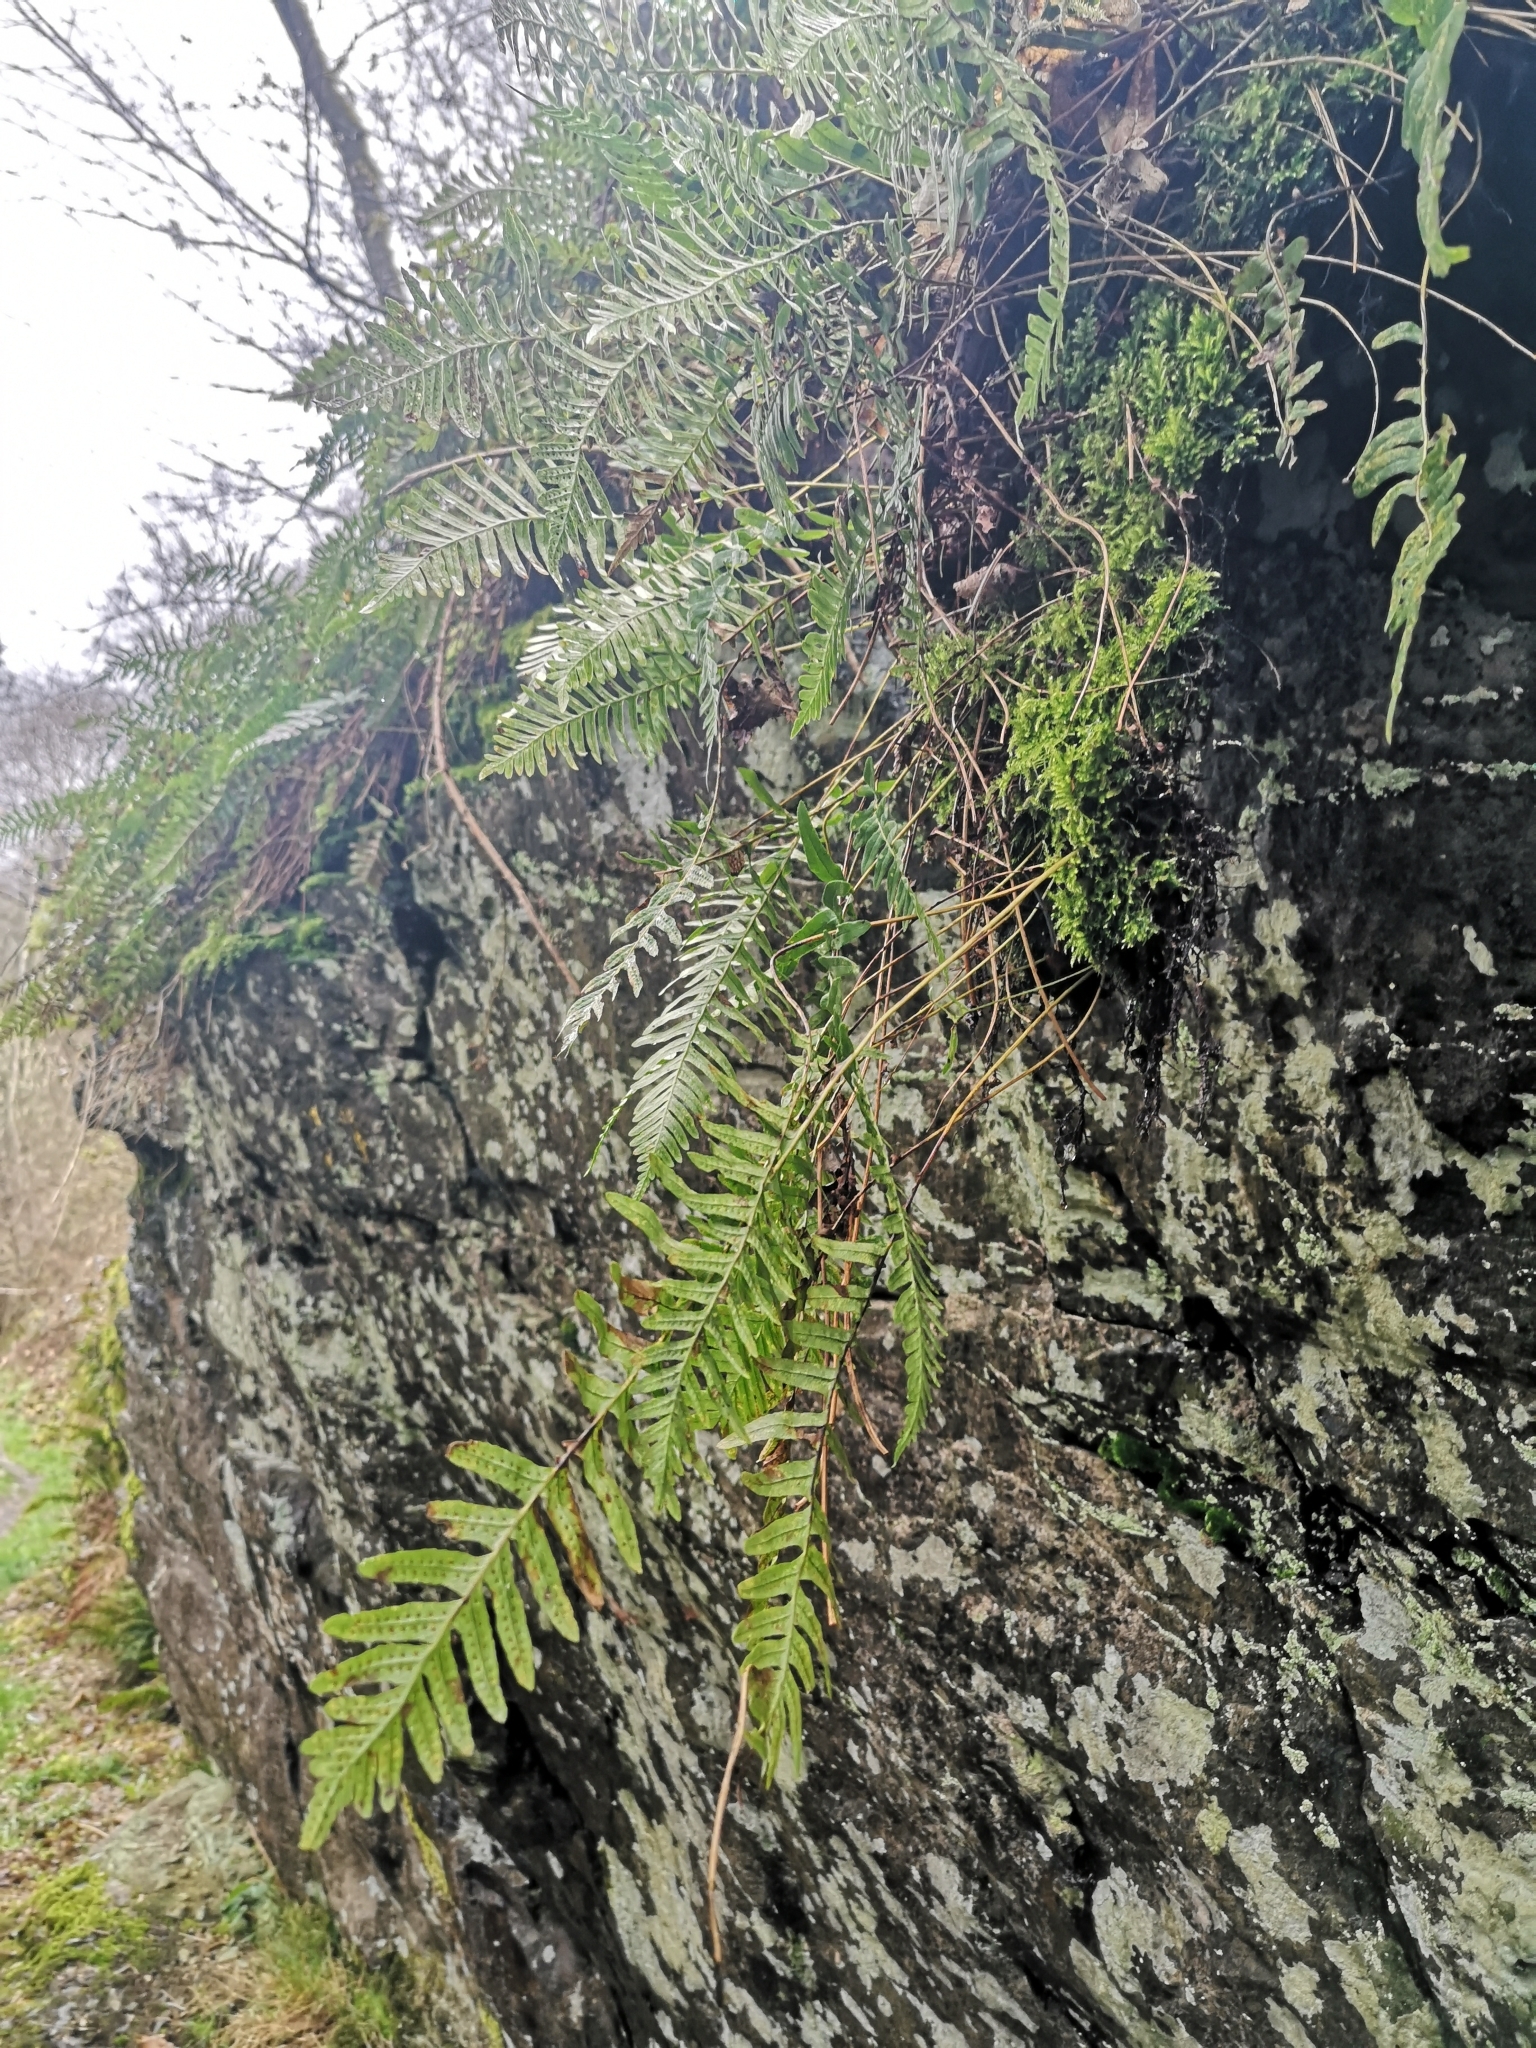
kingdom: Plantae
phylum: Tracheophyta
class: Polypodiopsida
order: Polypodiales
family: Polypodiaceae
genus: Polypodium
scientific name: Polypodium vulgare
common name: Common polypody
